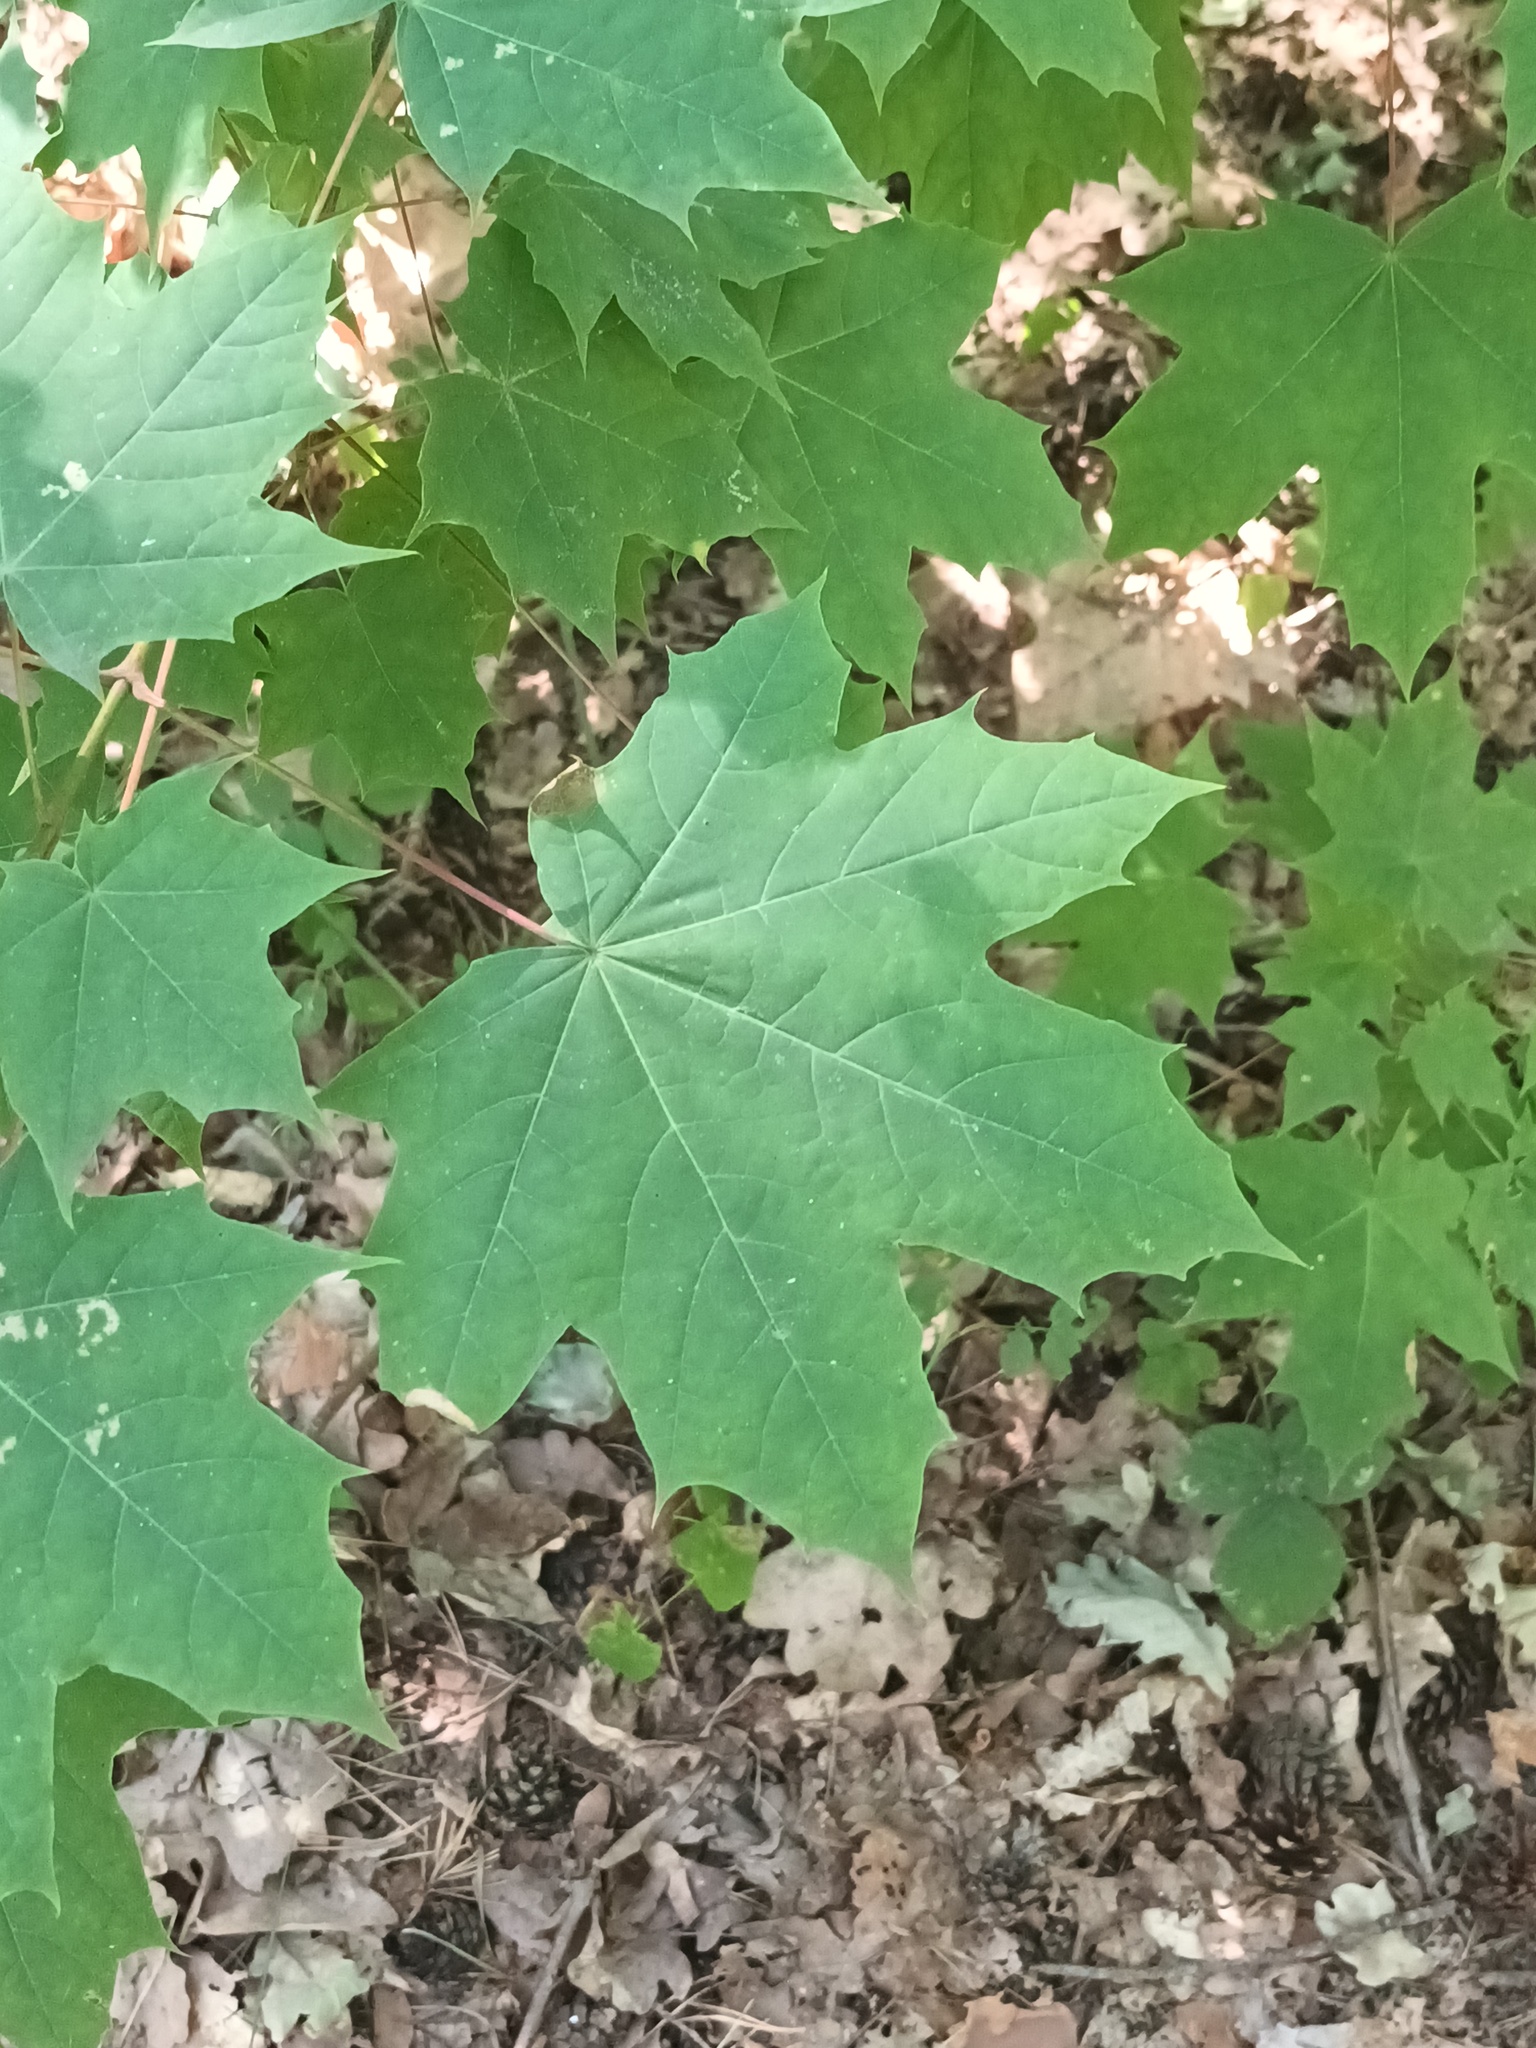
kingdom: Plantae
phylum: Tracheophyta
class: Magnoliopsida
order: Sapindales
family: Sapindaceae
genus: Acer
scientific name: Acer platanoides
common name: Norway maple
